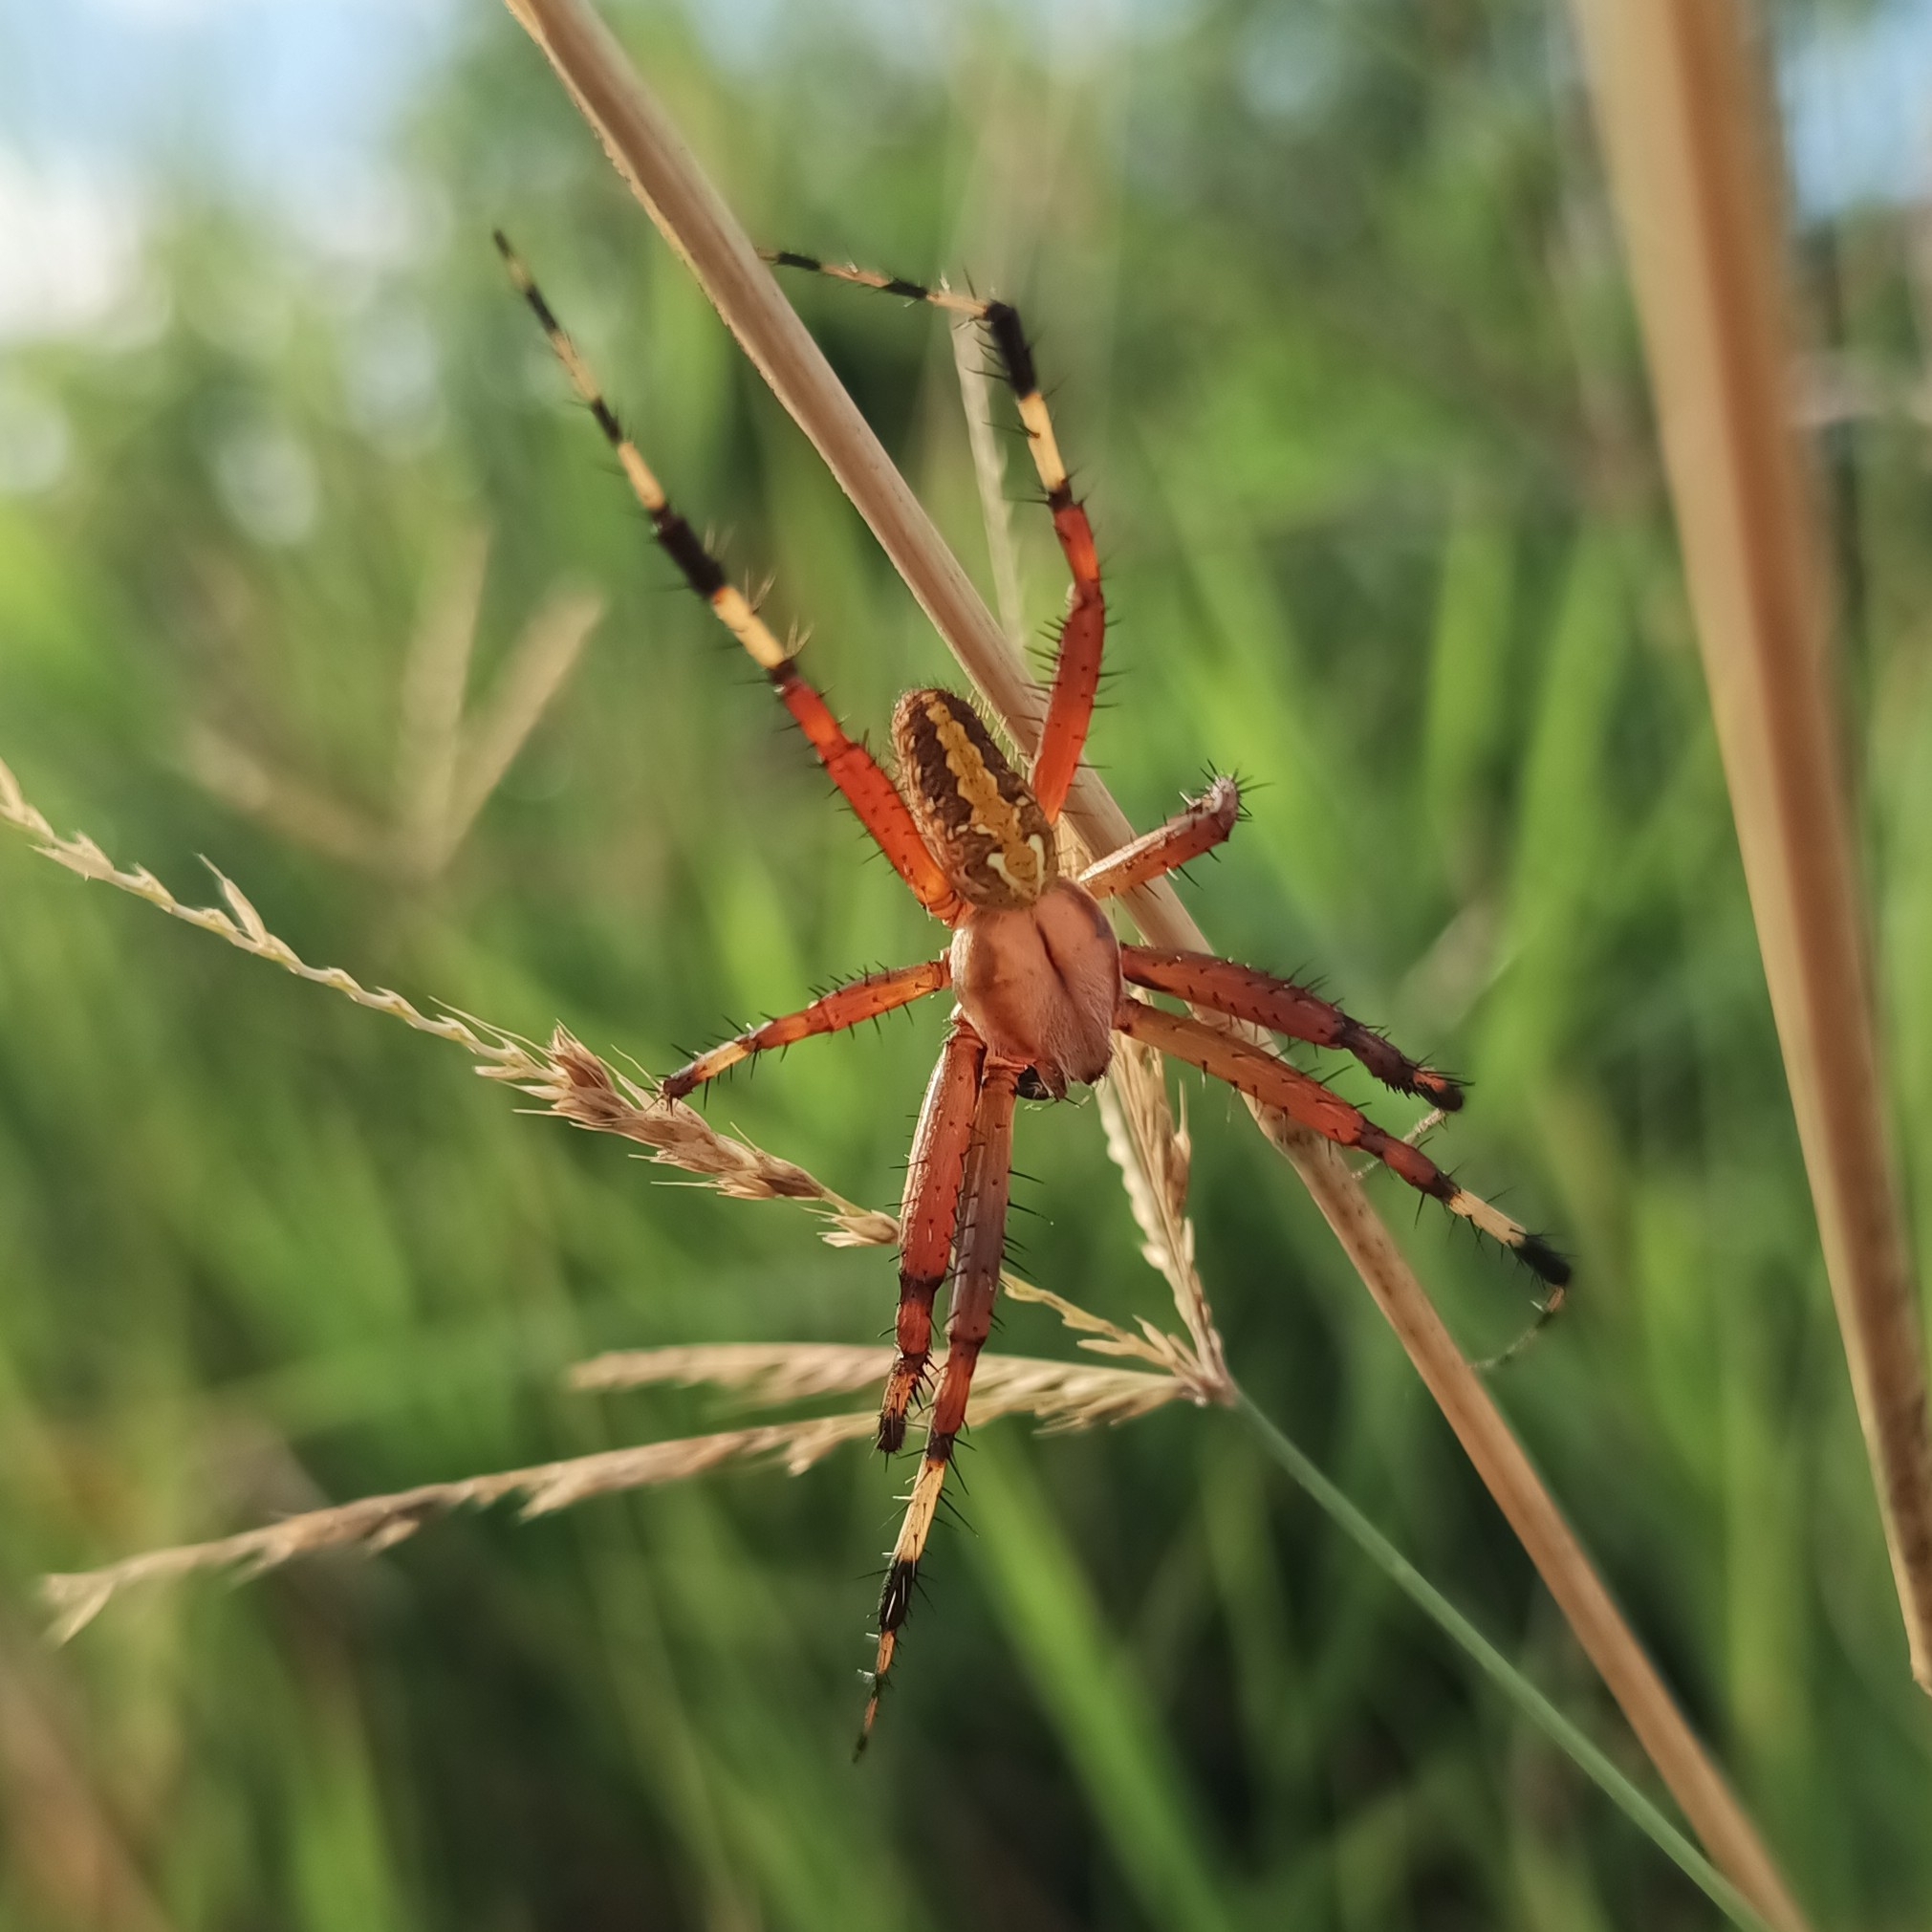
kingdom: Animalia
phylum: Arthropoda
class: Arachnida
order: Araneae
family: Araneidae
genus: Neoscona
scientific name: Neoscona oaxacensis
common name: Orb weavers
